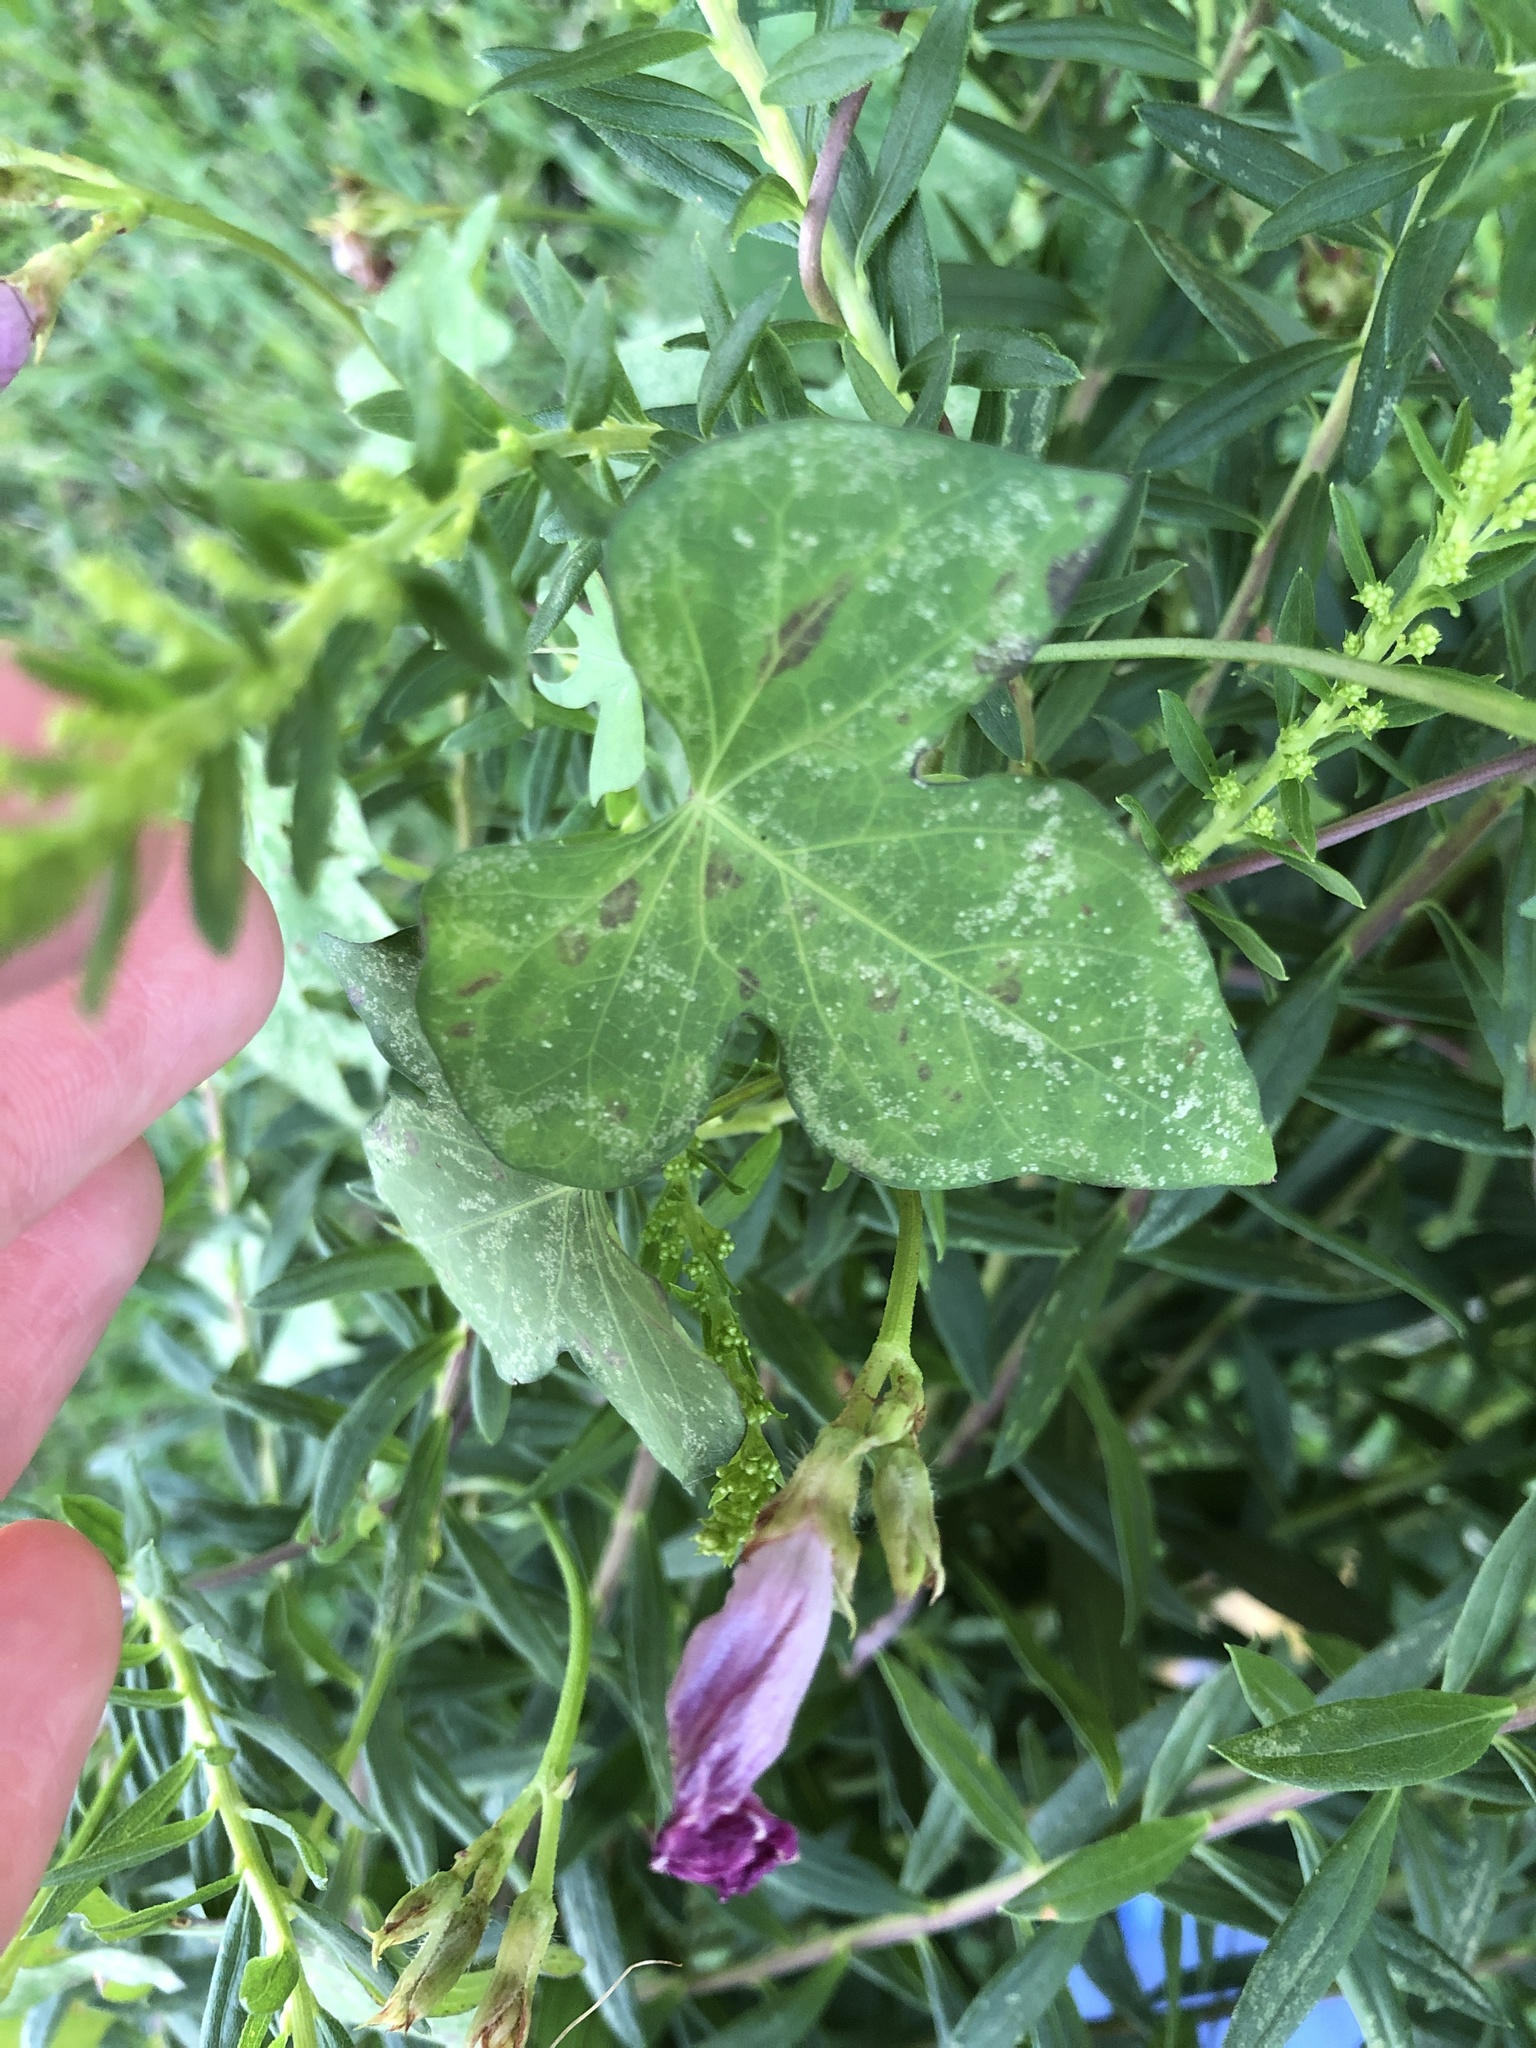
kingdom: Plantae
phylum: Tracheophyta
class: Magnoliopsida
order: Solanales
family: Convolvulaceae
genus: Ipomoea
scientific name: Ipomoea cordatotriloba
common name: Cotton morning glory
